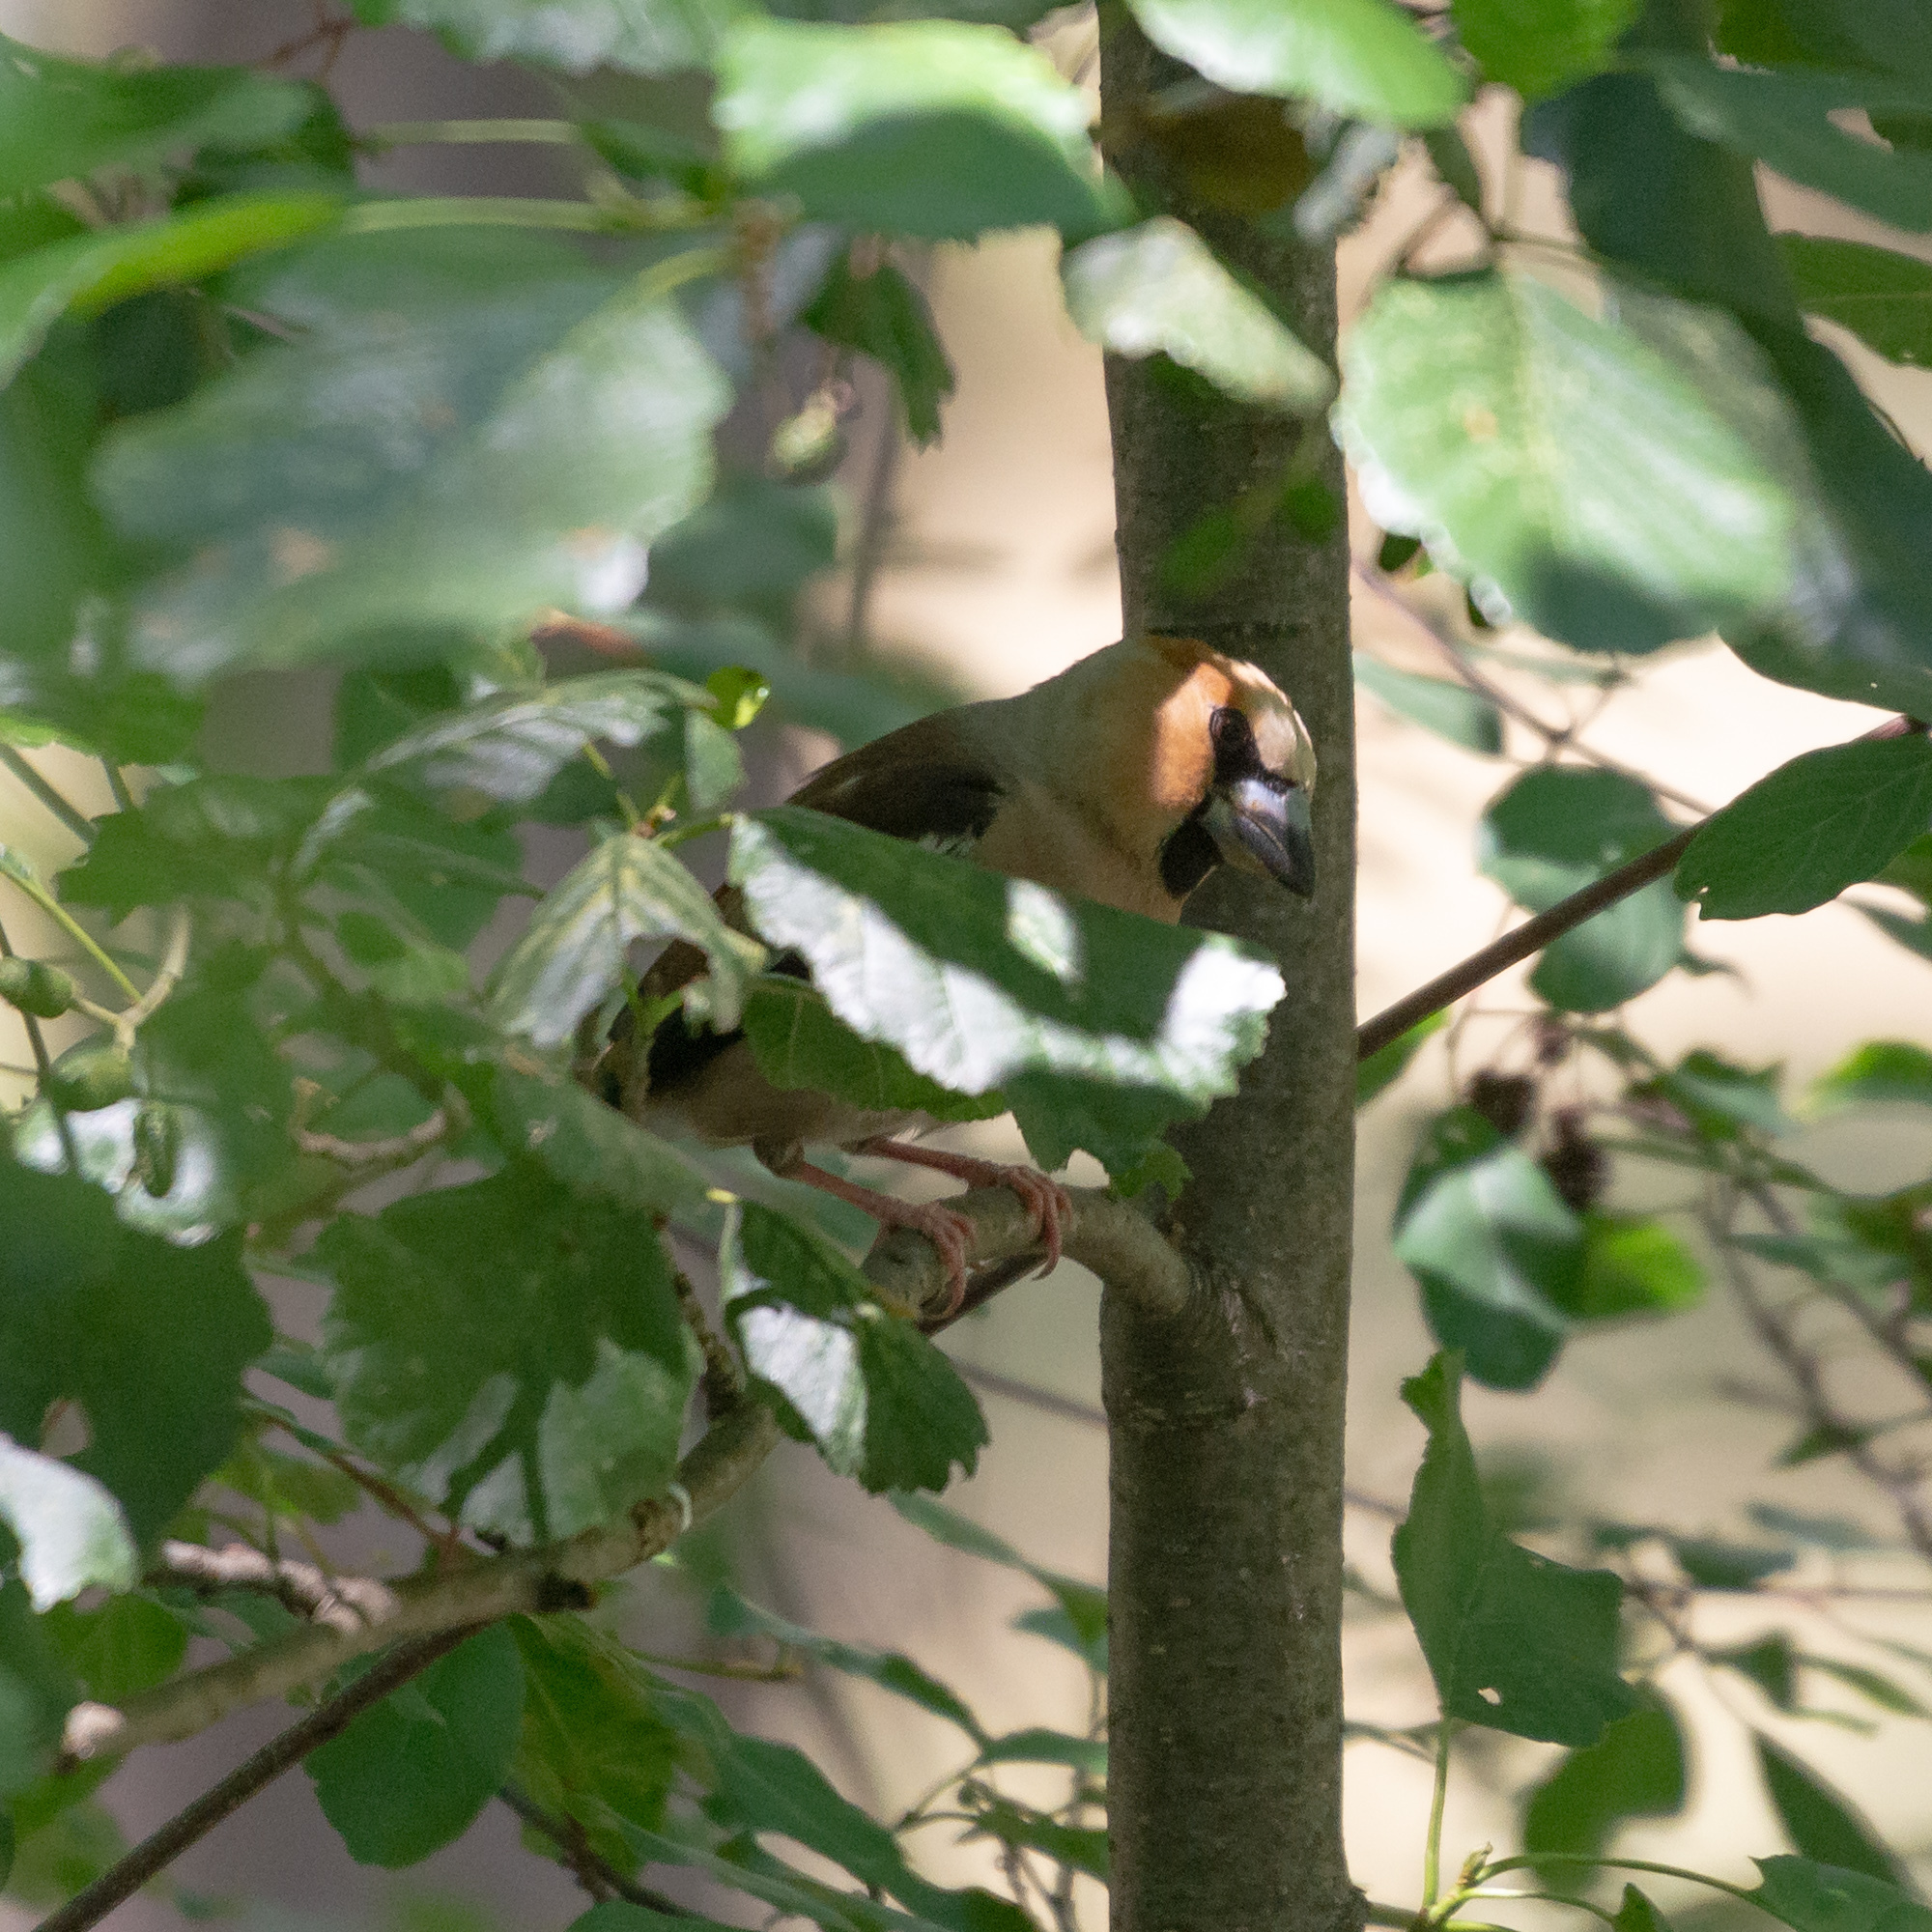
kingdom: Animalia
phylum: Chordata
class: Aves
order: Passeriformes
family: Fringillidae
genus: Coccothraustes
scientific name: Coccothraustes coccothraustes
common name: Hawfinch
